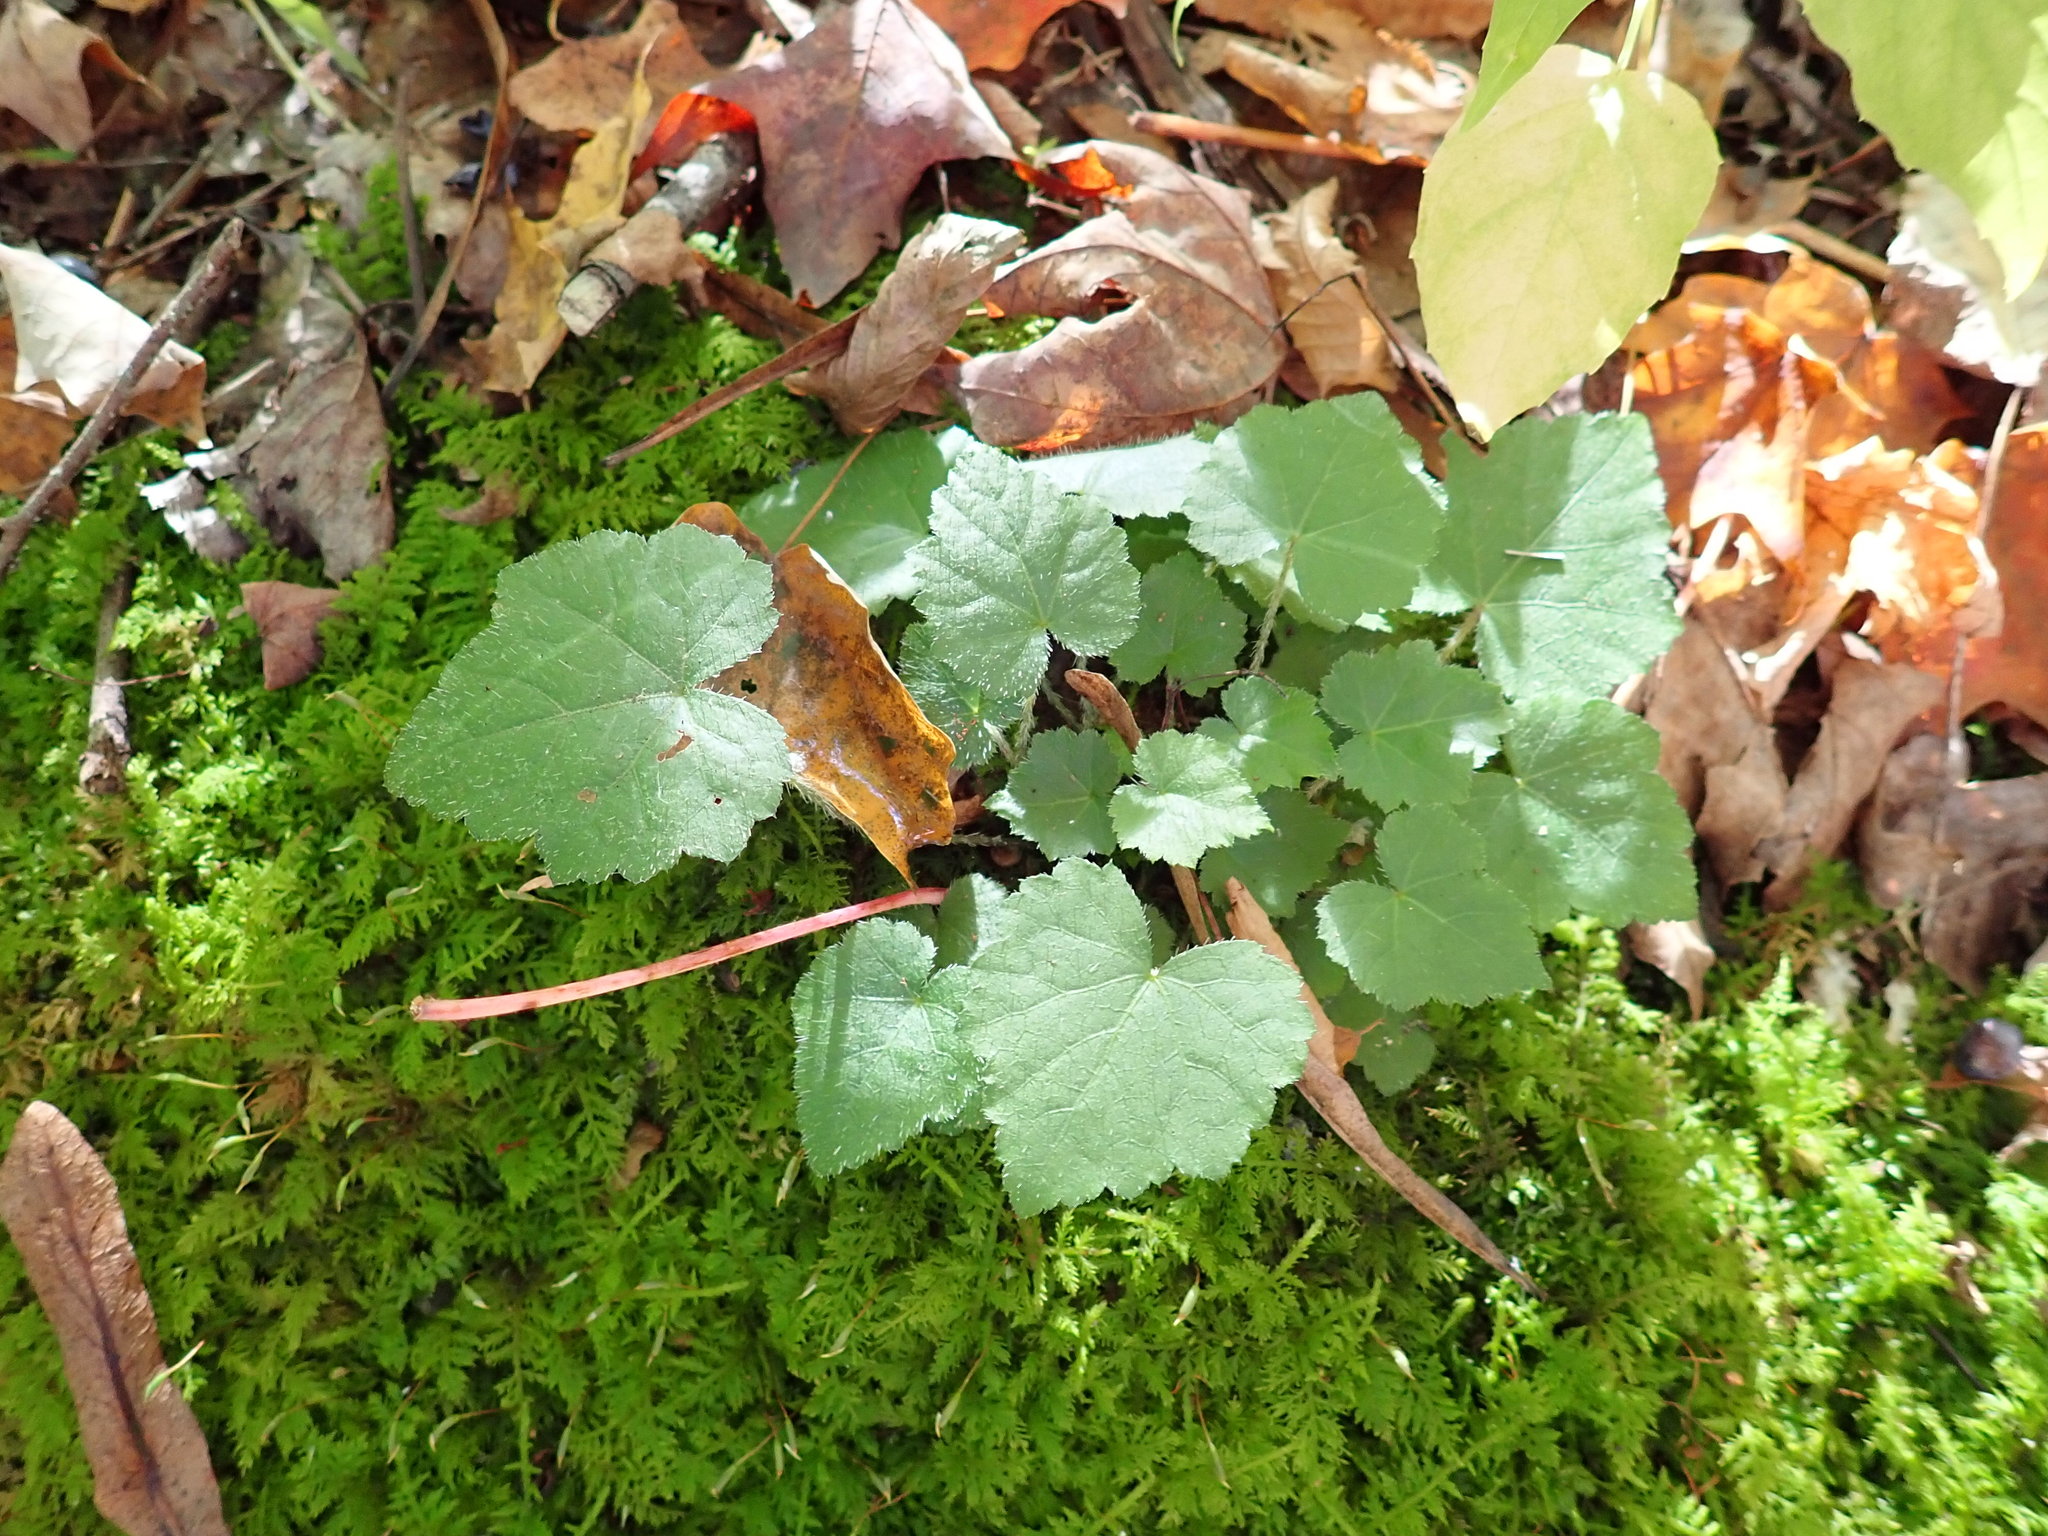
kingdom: Plantae
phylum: Tracheophyta
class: Magnoliopsida
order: Saxifragales
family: Saxifragaceae
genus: Tiarella
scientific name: Tiarella stolonifera
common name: Stoloniferous foamflower
